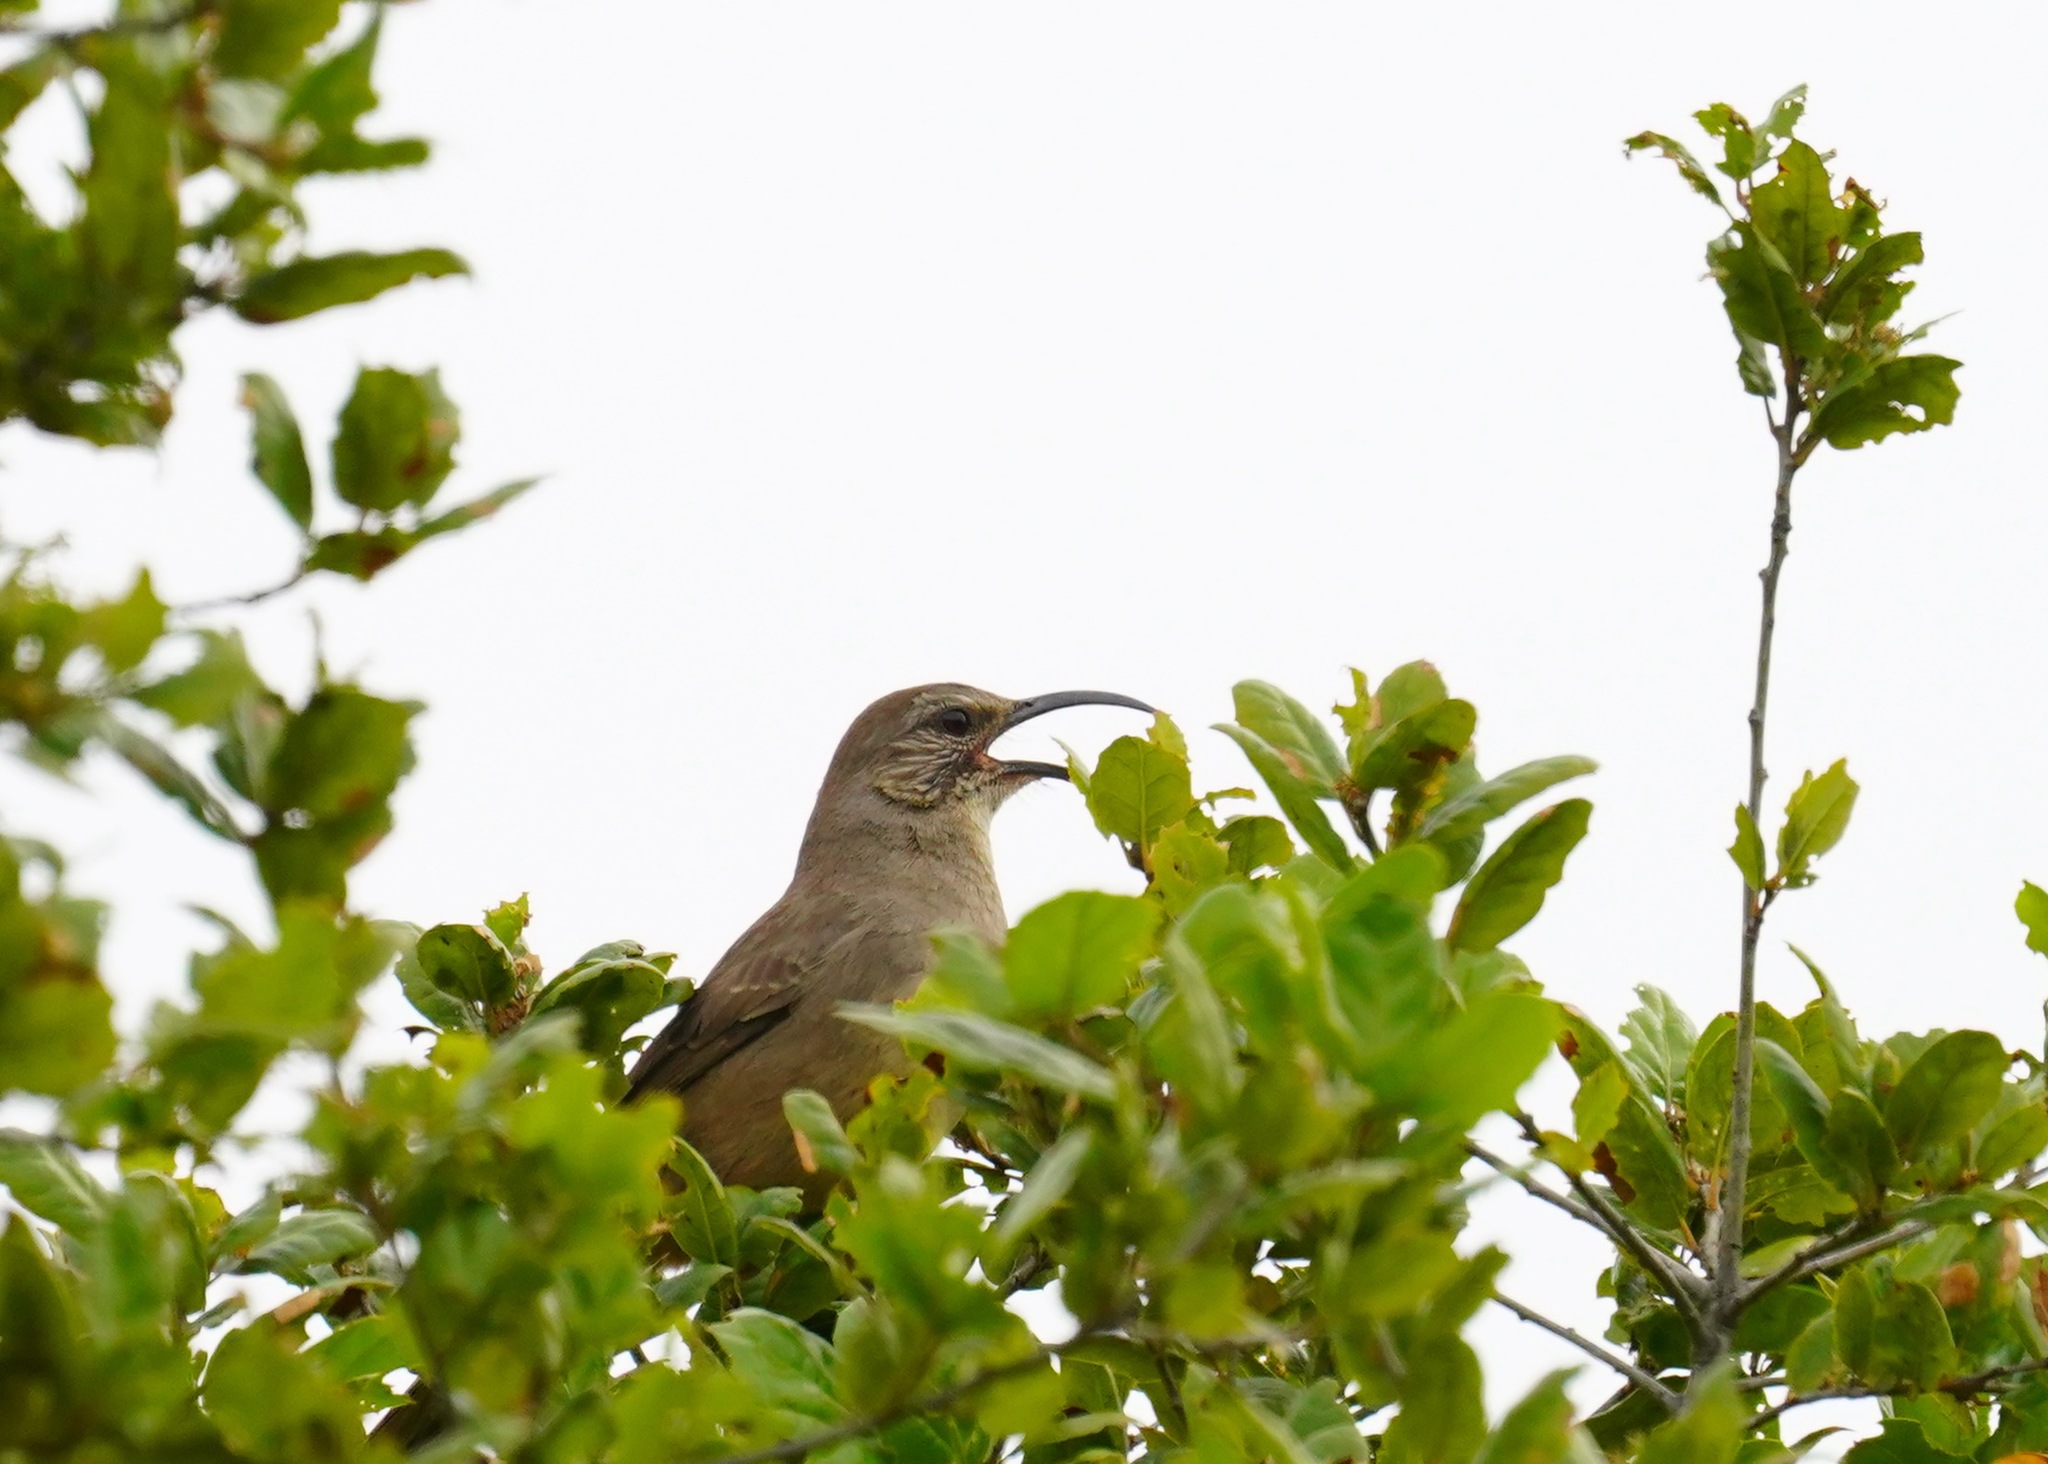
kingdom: Animalia
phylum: Chordata
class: Aves
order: Passeriformes
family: Mimidae
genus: Toxostoma
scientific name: Toxostoma redivivum
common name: California thrasher
